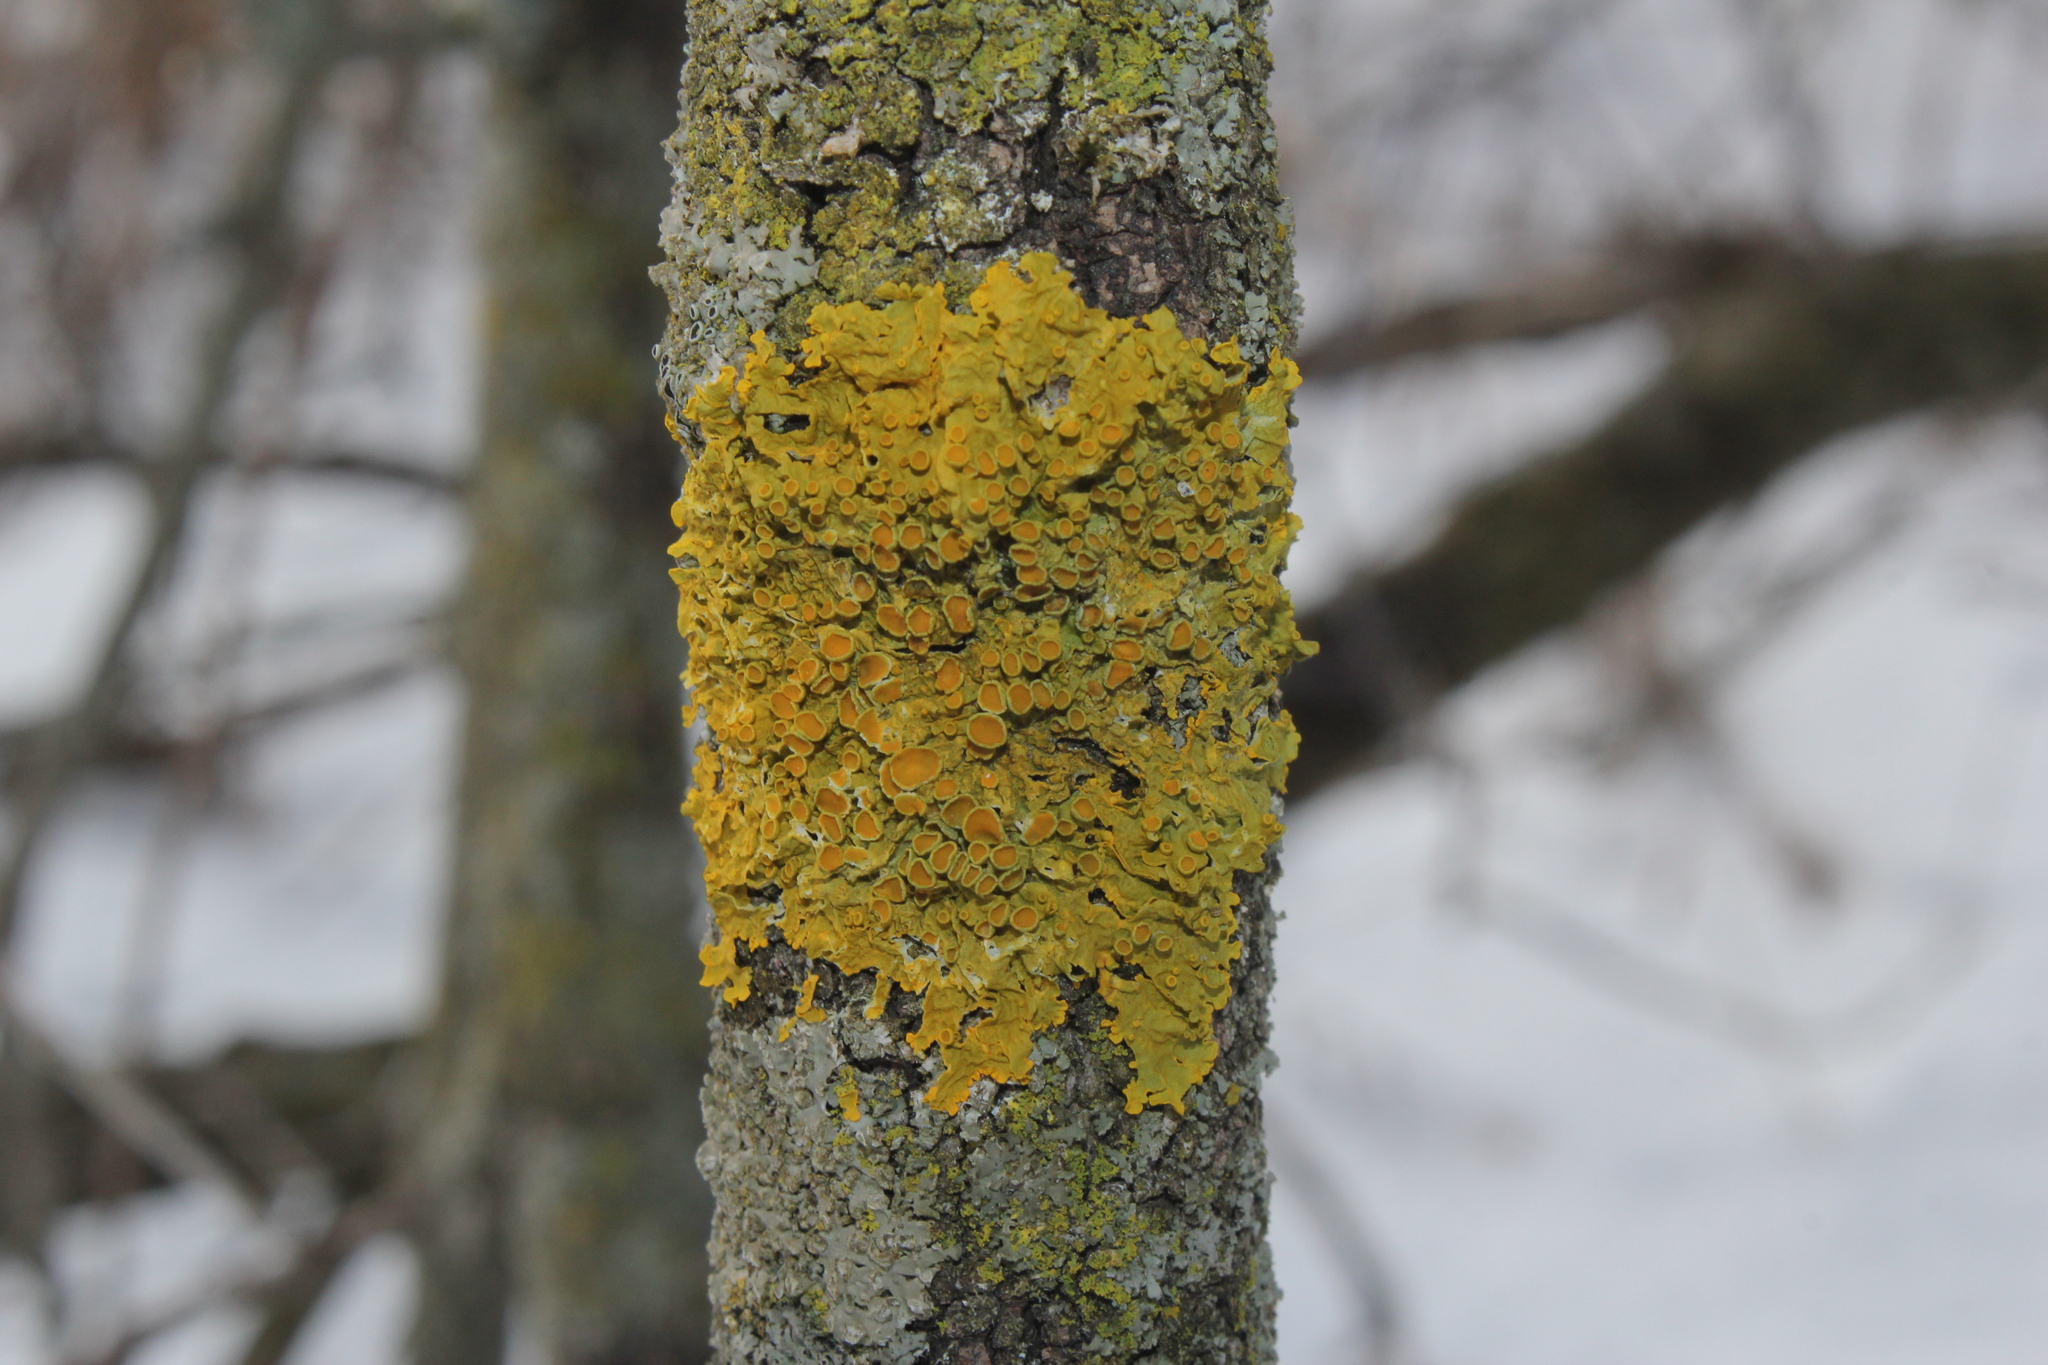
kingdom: Fungi
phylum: Ascomycota
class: Lecanoromycetes
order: Teloschistales
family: Teloschistaceae
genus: Xanthoria
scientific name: Xanthoria parietina
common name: Common orange lichen
